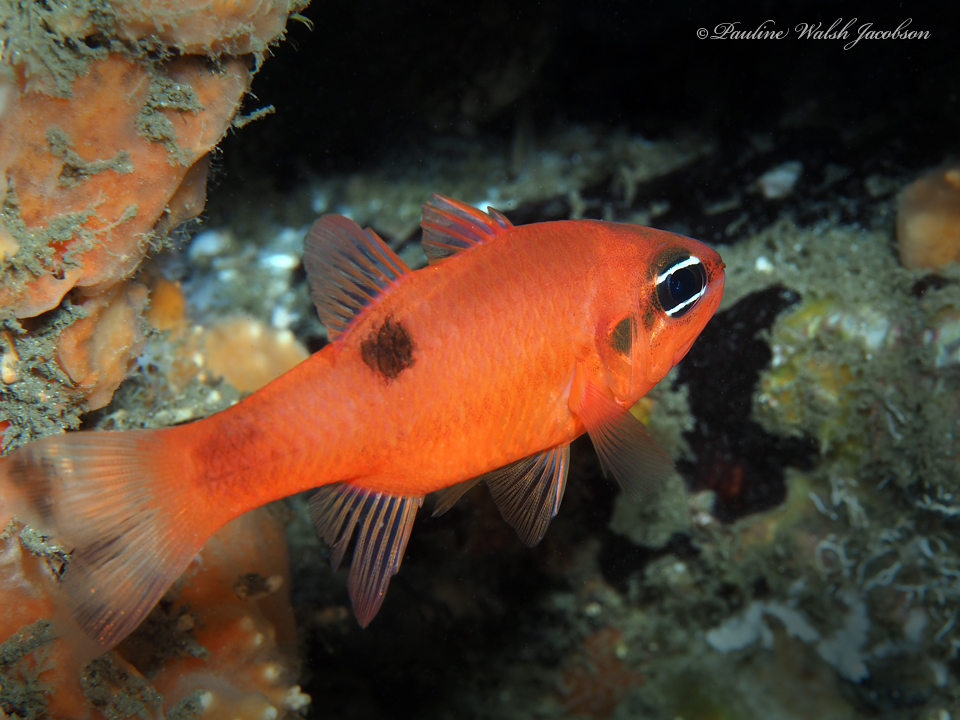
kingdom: Animalia
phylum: Chordata
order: Perciformes
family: Apogonidae
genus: Apogon
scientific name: Apogon maculatus
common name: Flamefish
